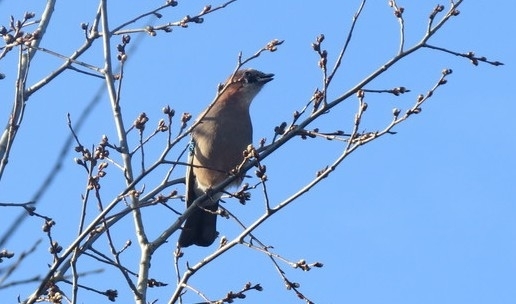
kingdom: Animalia
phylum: Chordata
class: Aves
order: Passeriformes
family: Corvidae
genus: Garrulus
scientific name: Garrulus glandarius
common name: Eurasian jay
